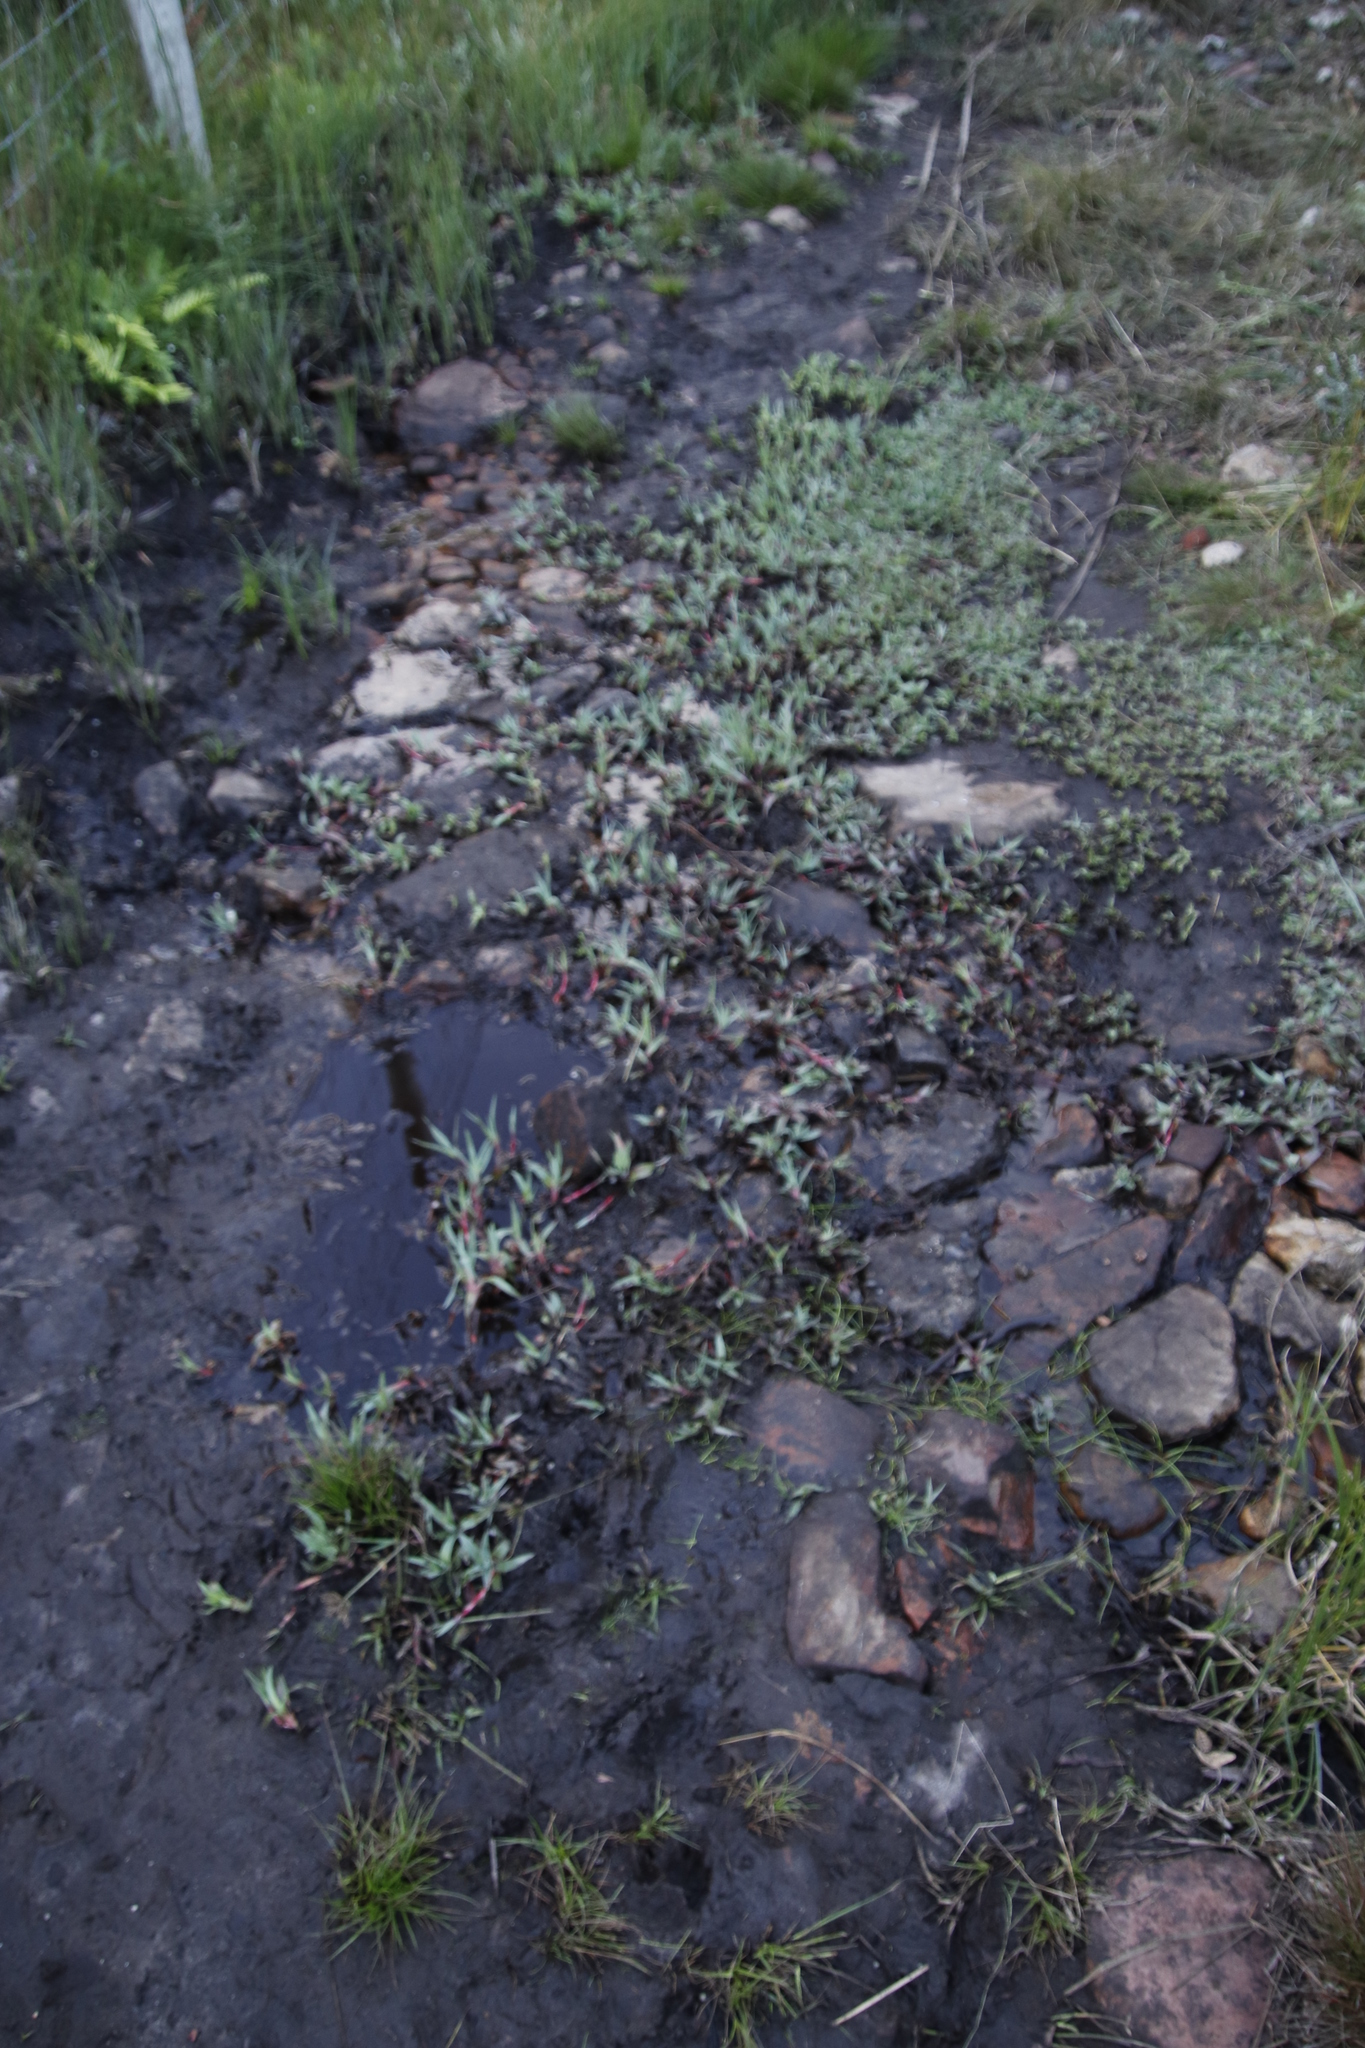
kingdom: Plantae
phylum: Tracheophyta
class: Liliopsida
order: Poales
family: Juncaceae
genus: Juncus
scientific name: Juncus lomatophyllus
